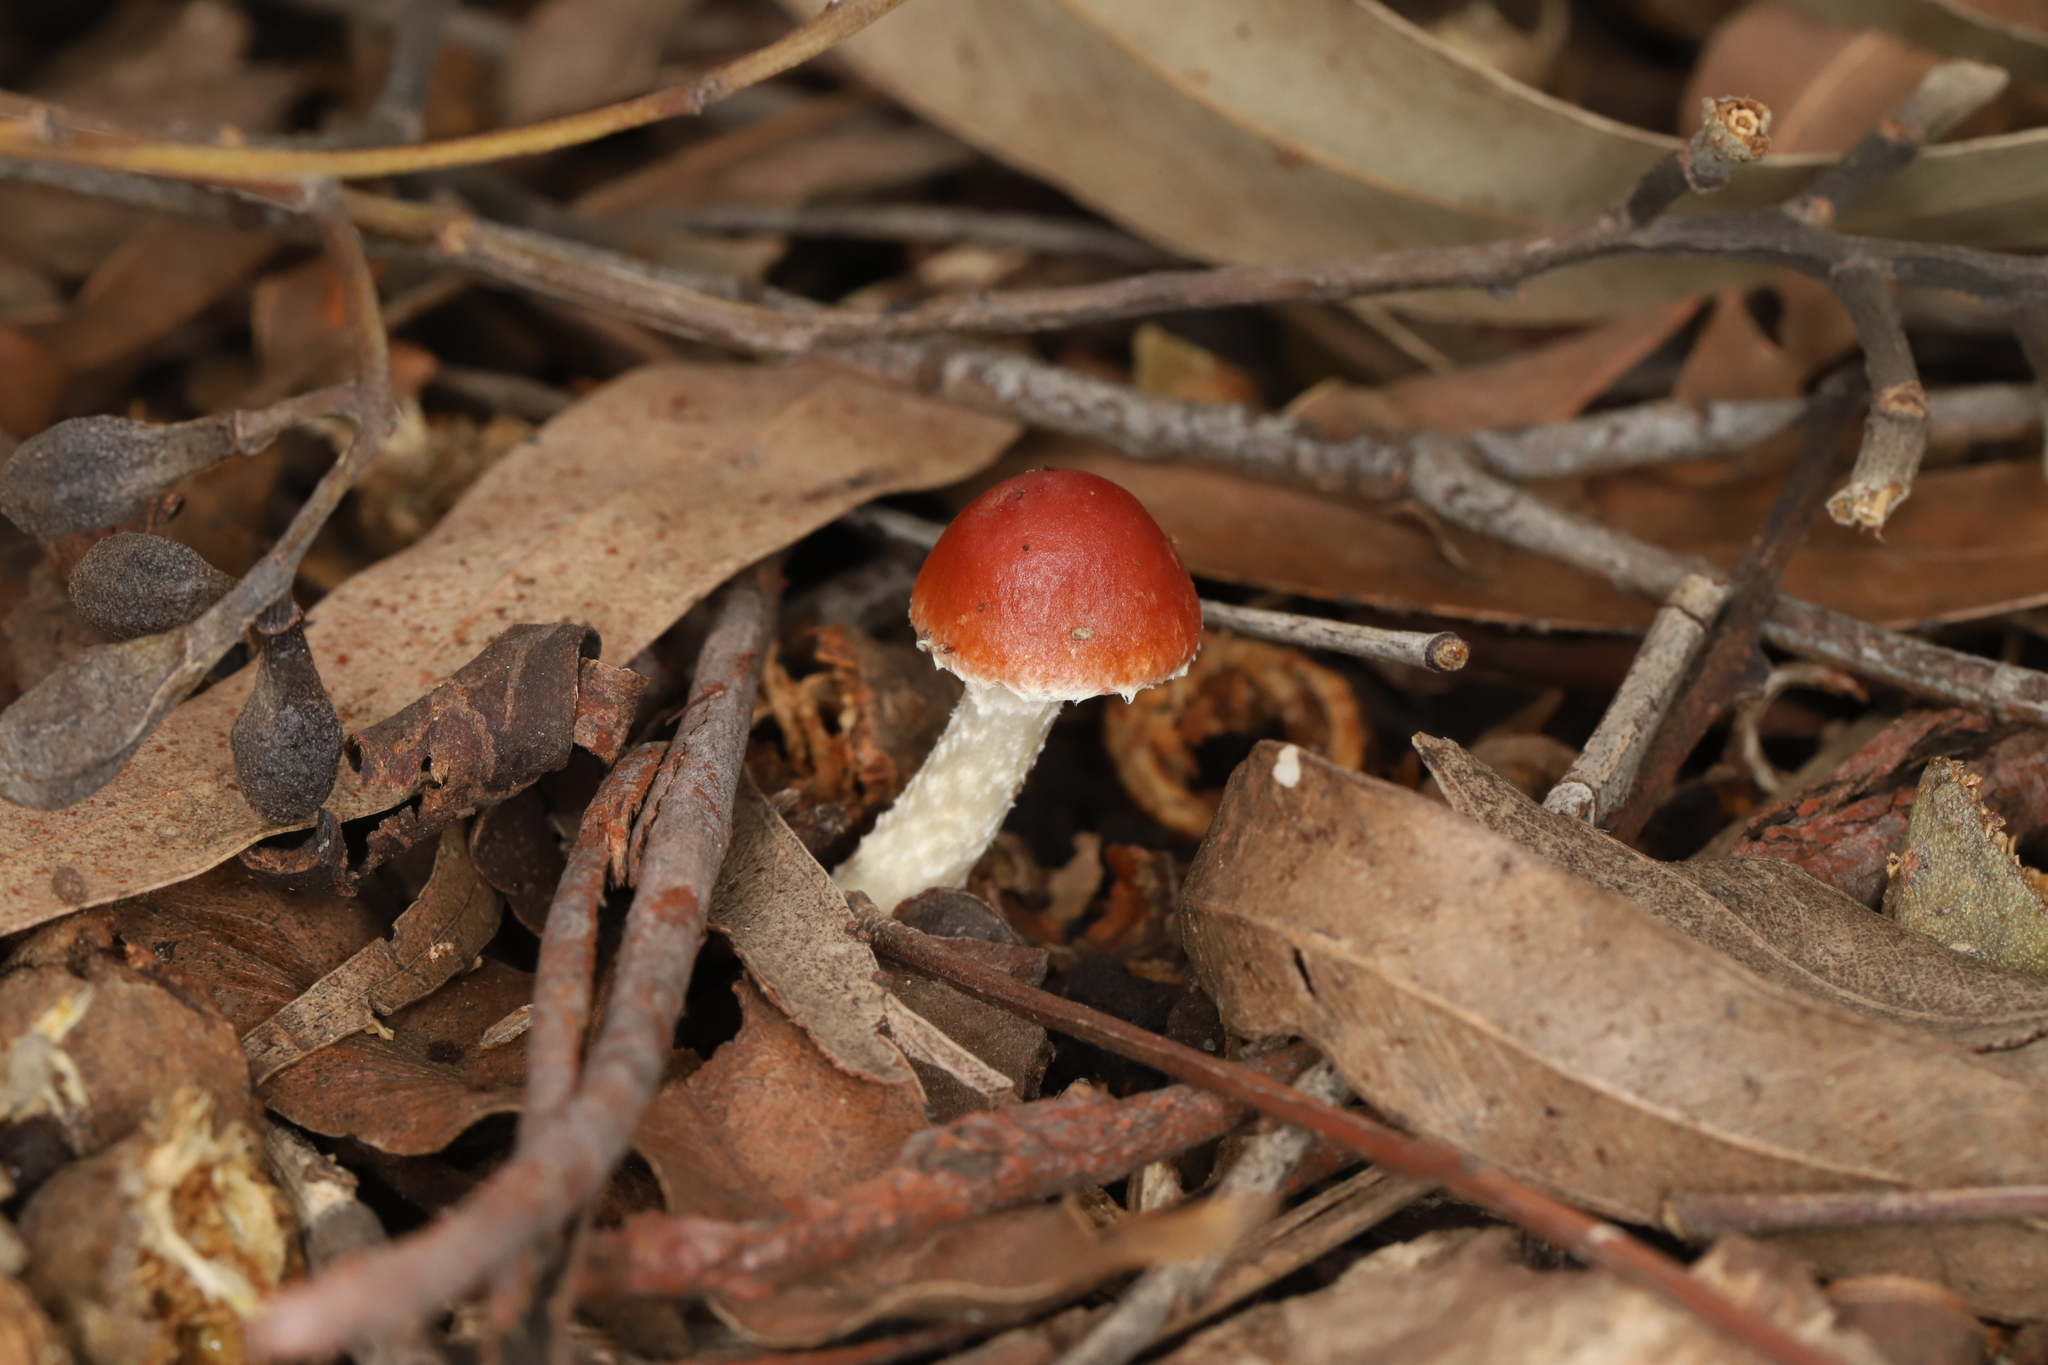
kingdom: Fungi
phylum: Basidiomycota
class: Agaricomycetes
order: Agaricales
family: Strophariaceae
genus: Leratiomyces
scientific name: Leratiomyces ceres
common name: Redlead roundhead
